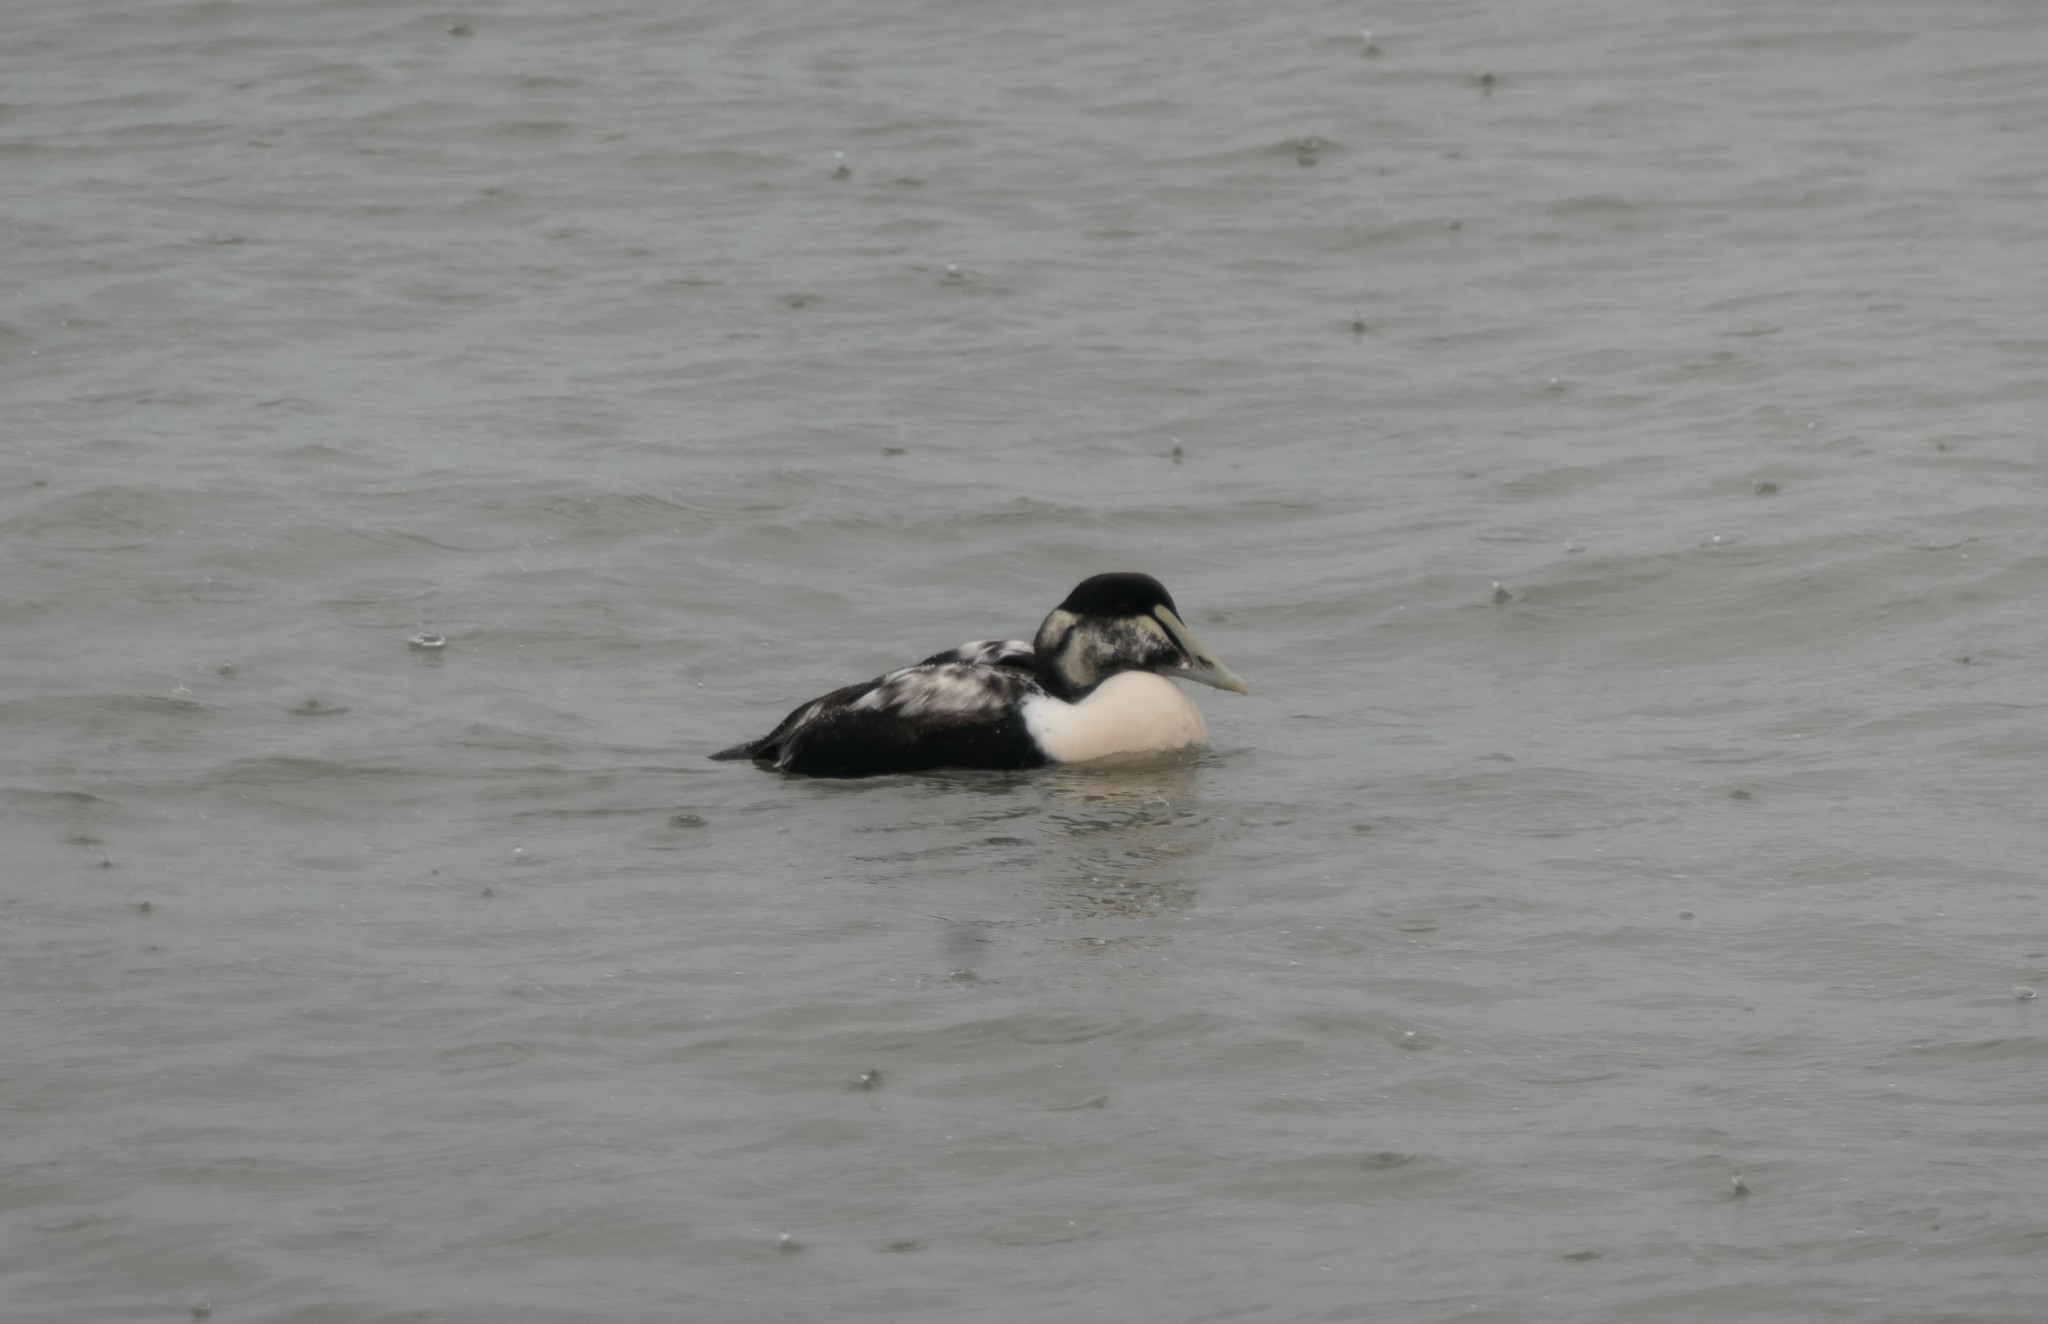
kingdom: Animalia
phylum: Chordata
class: Aves
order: Anseriformes
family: Anatidae
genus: Somateria
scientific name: Somateria mollissima
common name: Common eider
